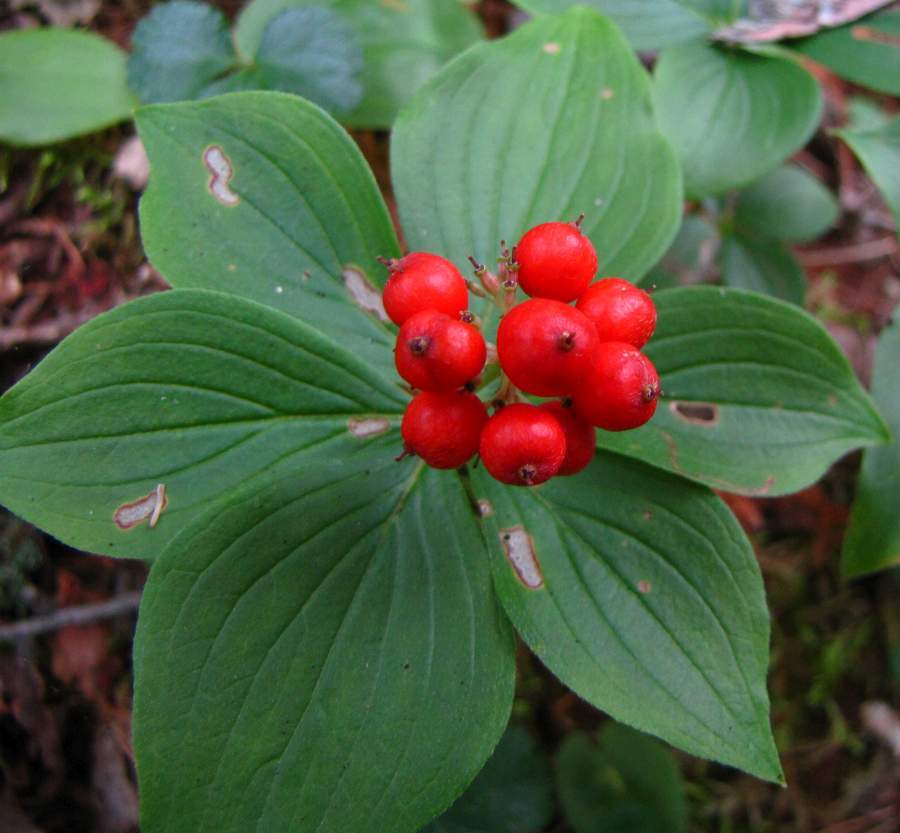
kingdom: Plantae
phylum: Tracheophyta
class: Magnoliopsida
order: Cornales
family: Cornaceae
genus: Cornus
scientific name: Cornus canadensis
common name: Creeping dogwood
